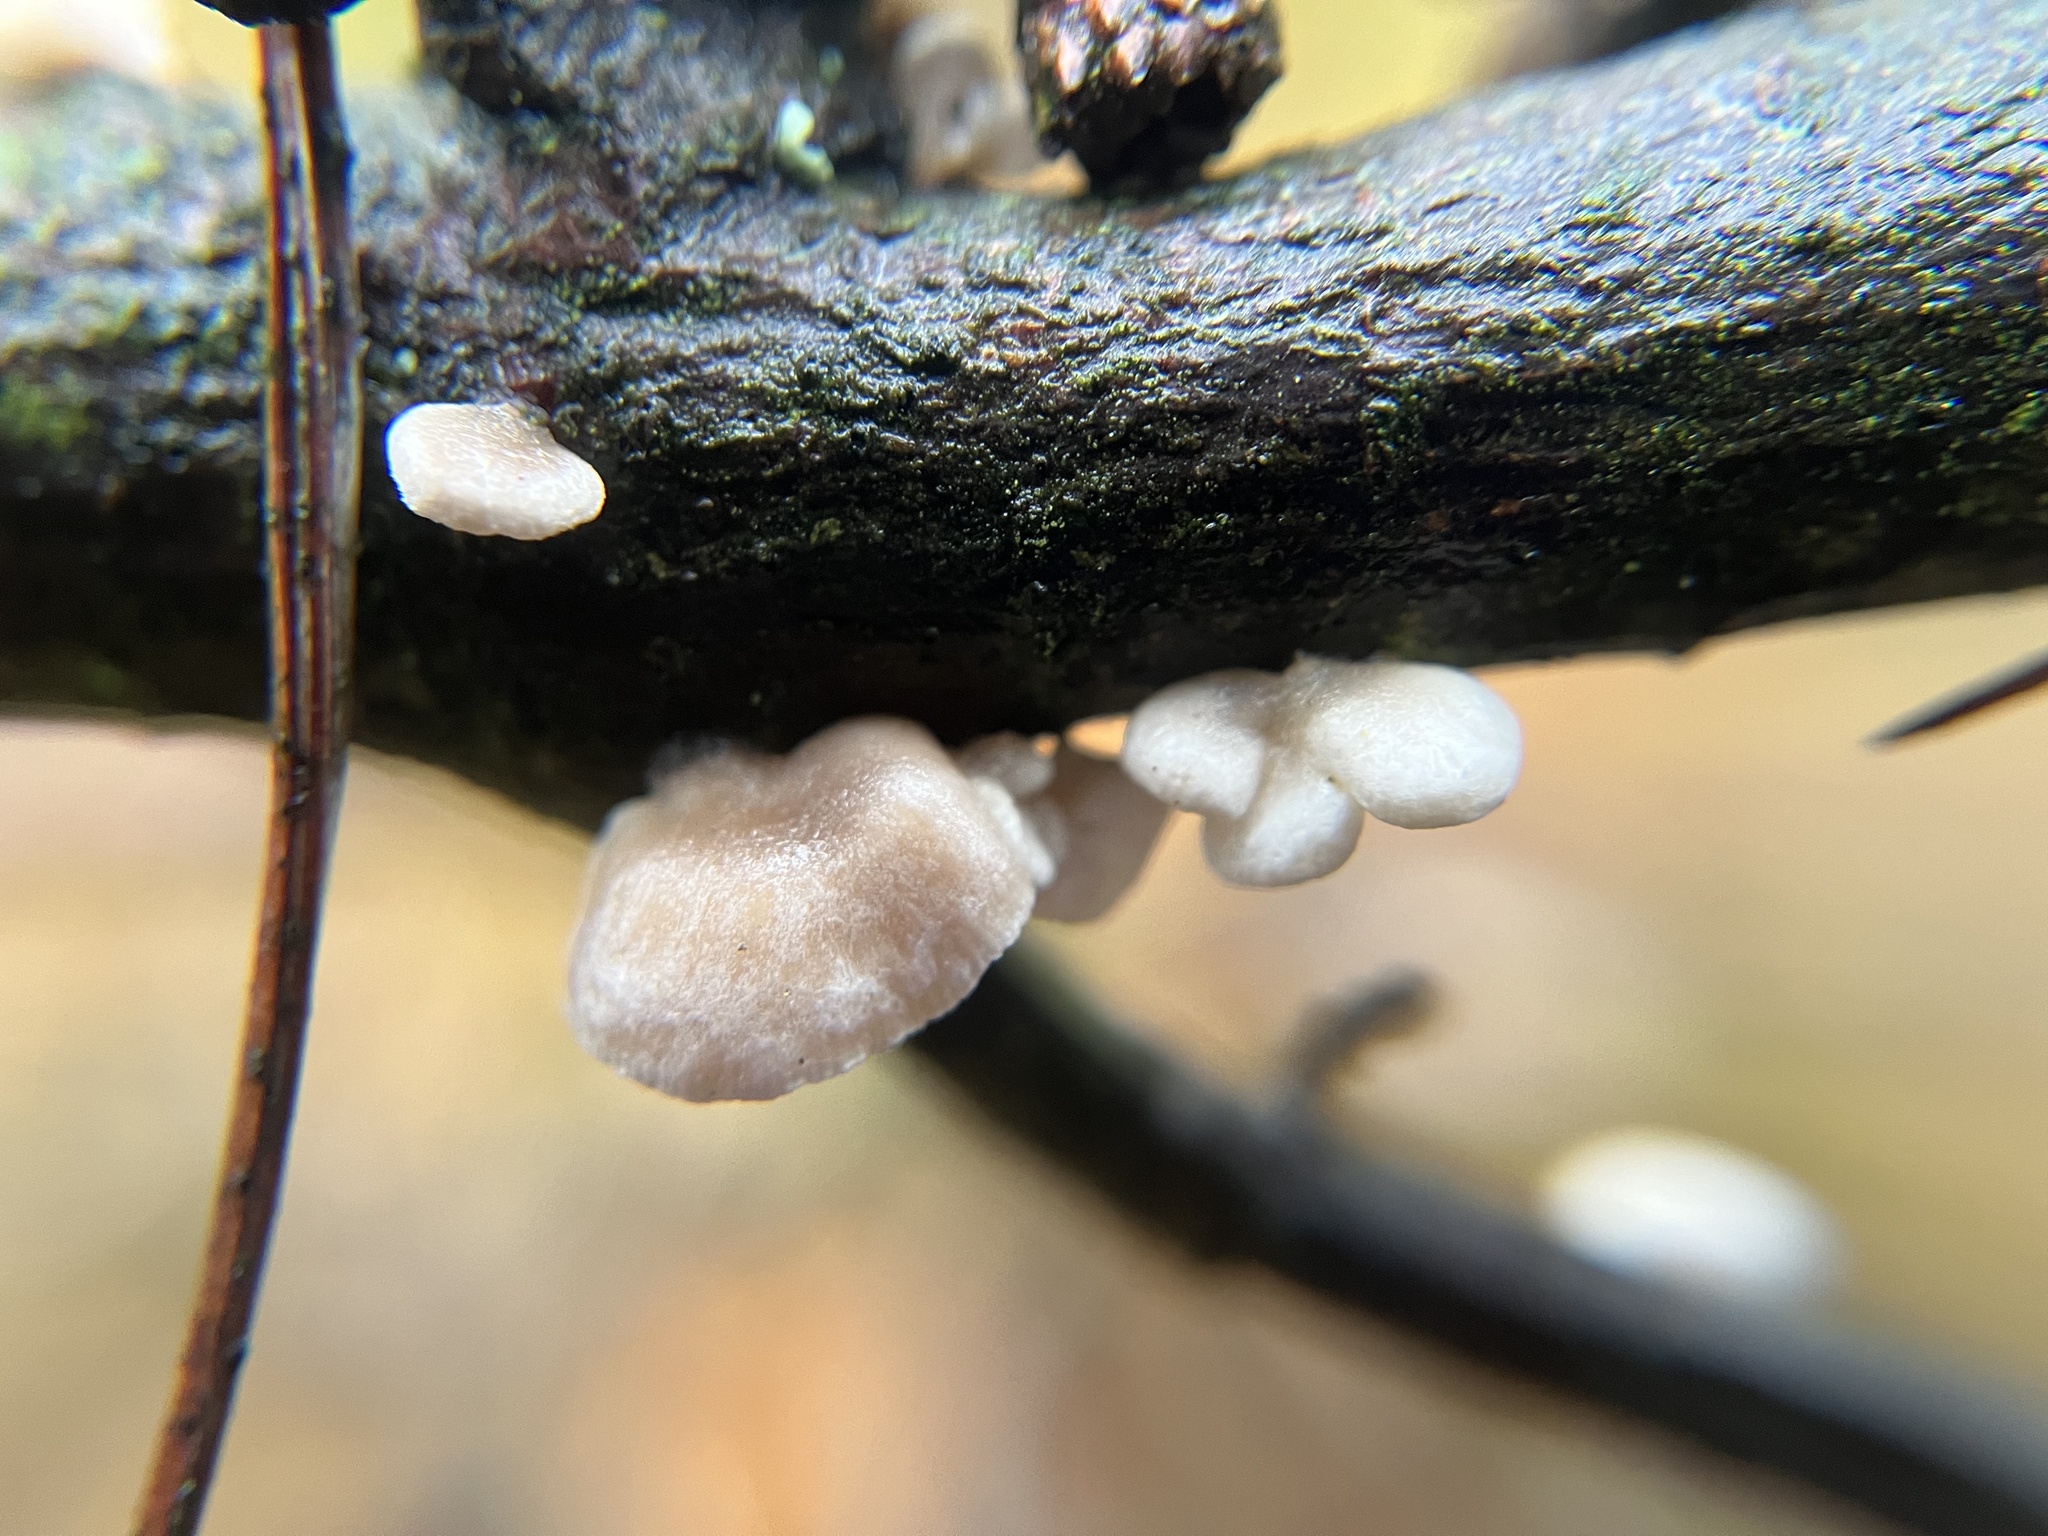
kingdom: Fungi
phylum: Basidiomycota
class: Agaricomycetes
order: Agaricales
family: Mycenaceae
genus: Panellus
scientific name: Panellus mitis
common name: Elastic oysterling
